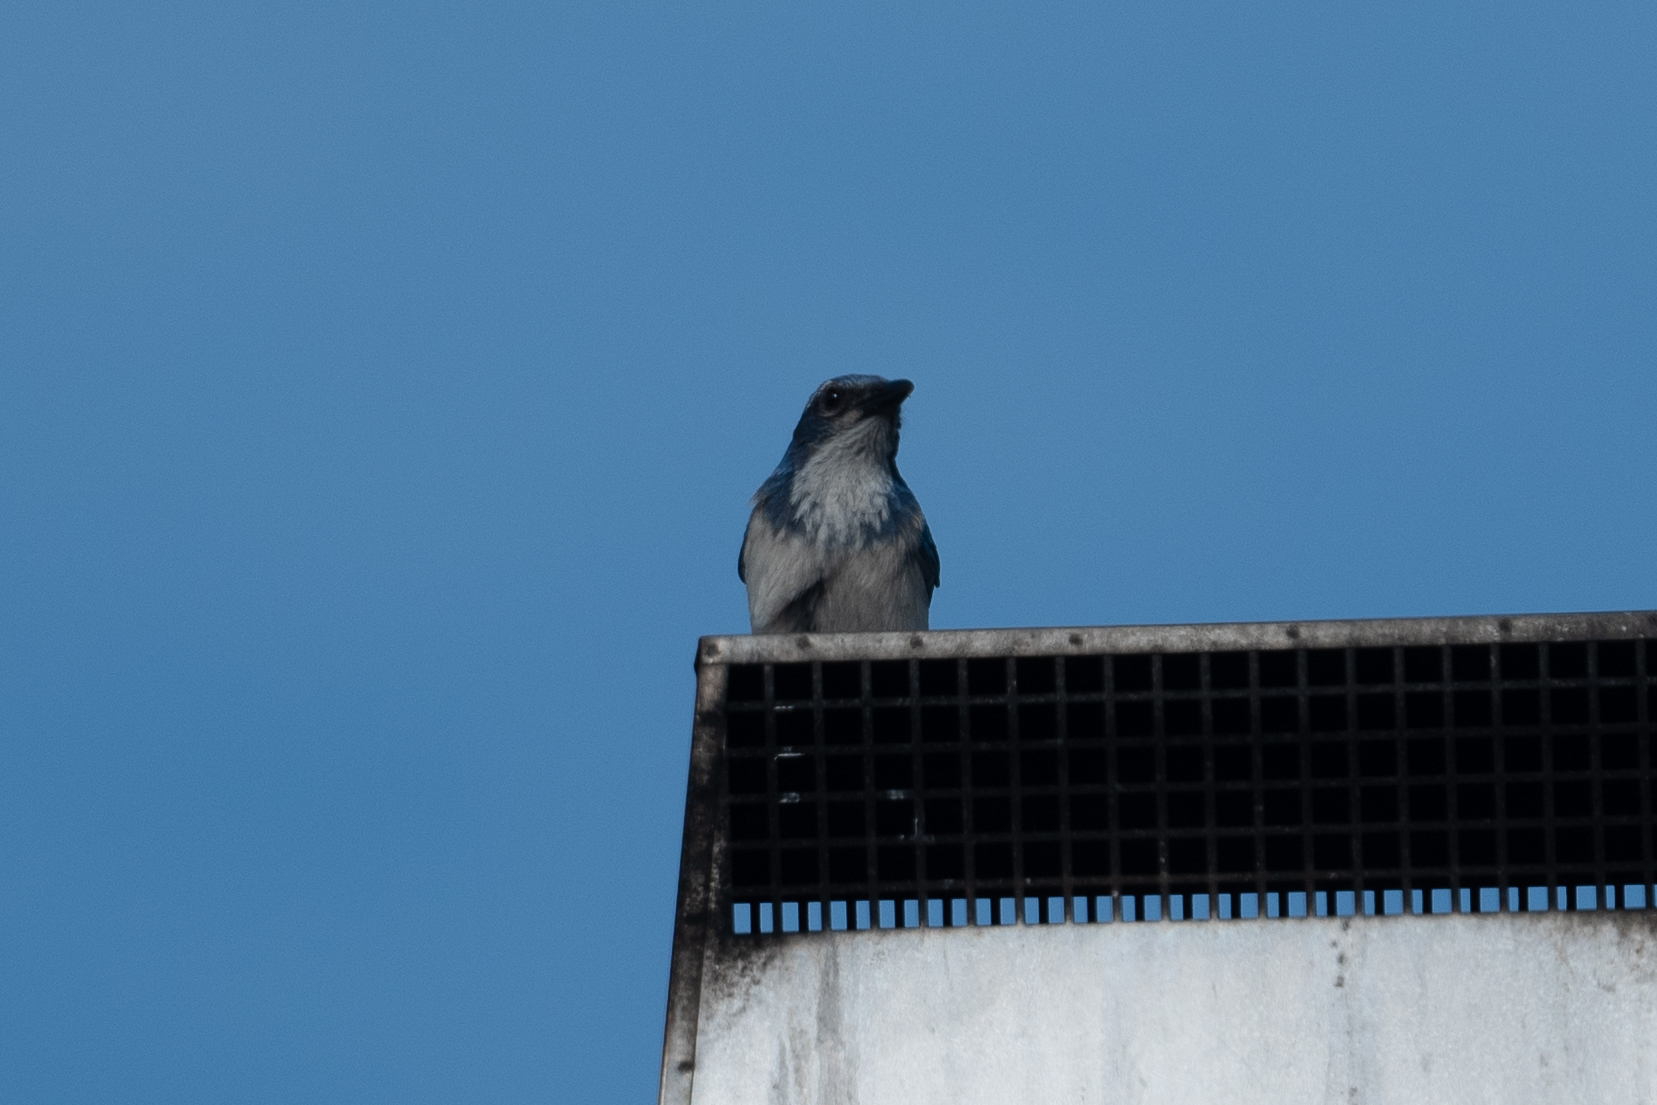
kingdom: Animalia
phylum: Chordata
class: Aves
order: Passeriformes
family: Corvidae
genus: Aphelocoma
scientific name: Aphelocoma californica
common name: California scrub-jay
